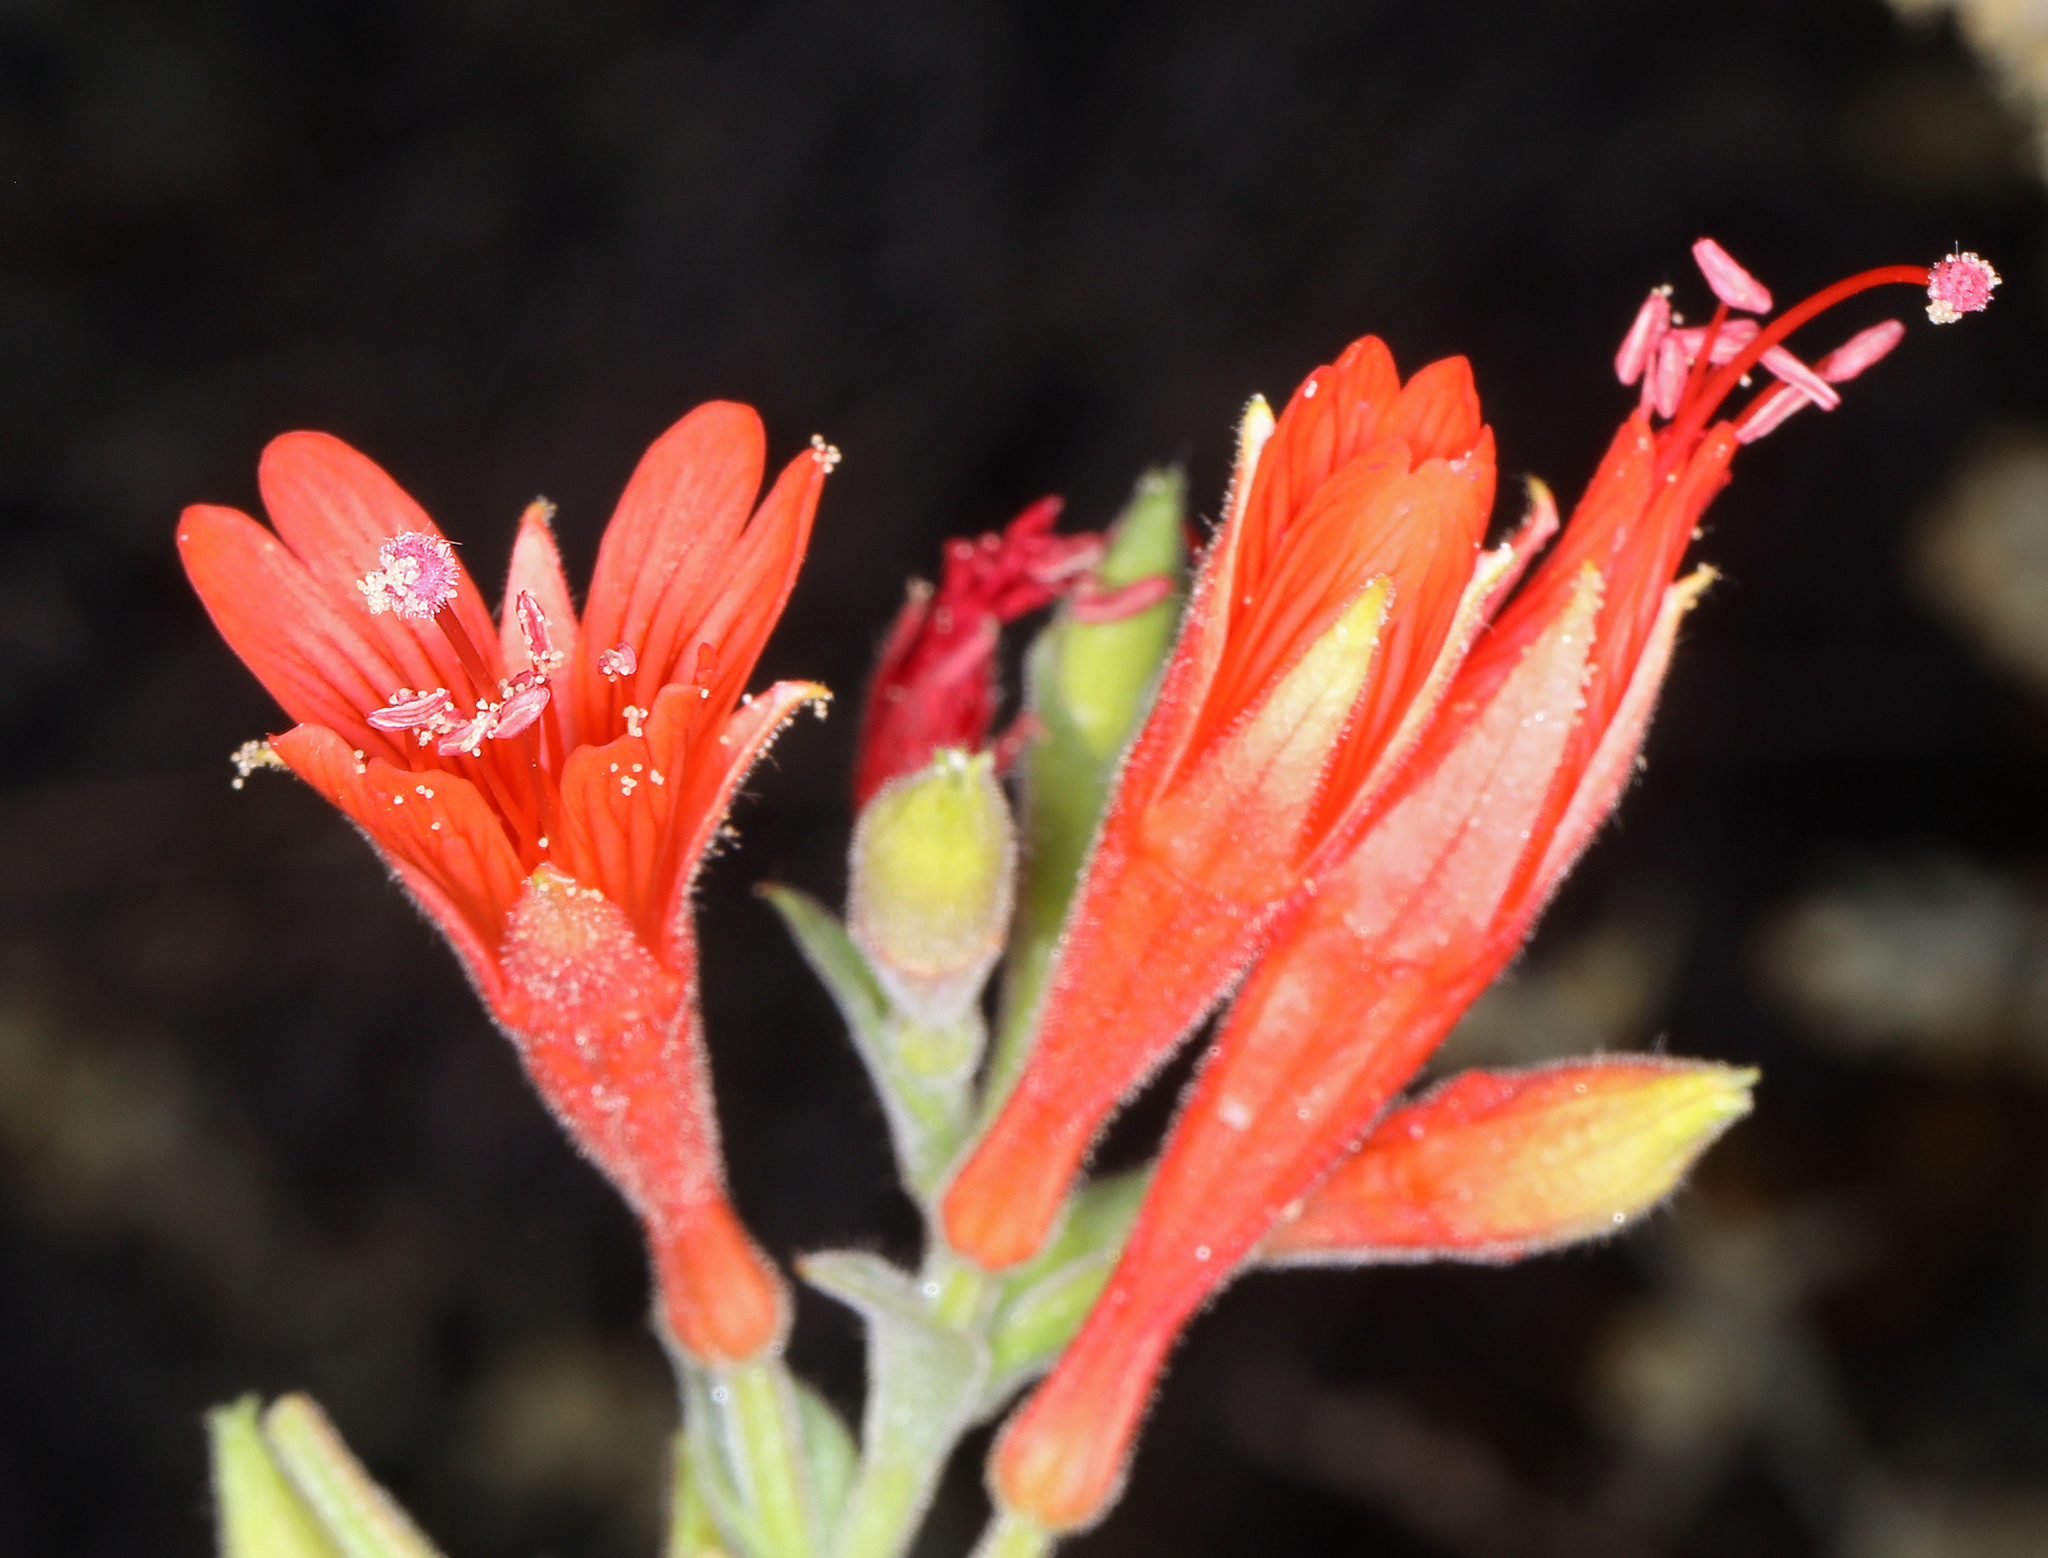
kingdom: Plantae
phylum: Tracheophyta
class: Magnoliopsida
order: Myrtales
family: Onagraceae
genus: Epilobium
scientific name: Epilobium canum
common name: California-fuchsia
